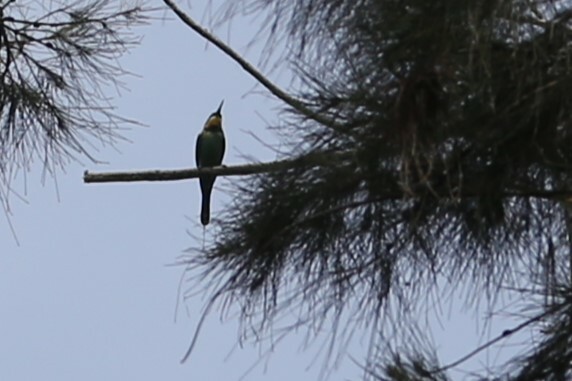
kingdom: Animalia
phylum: Chordata
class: Aves
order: Coraciiformes
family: Meropidae
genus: Merops
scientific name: Merops ornatus
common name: Rainbow bee-eater
